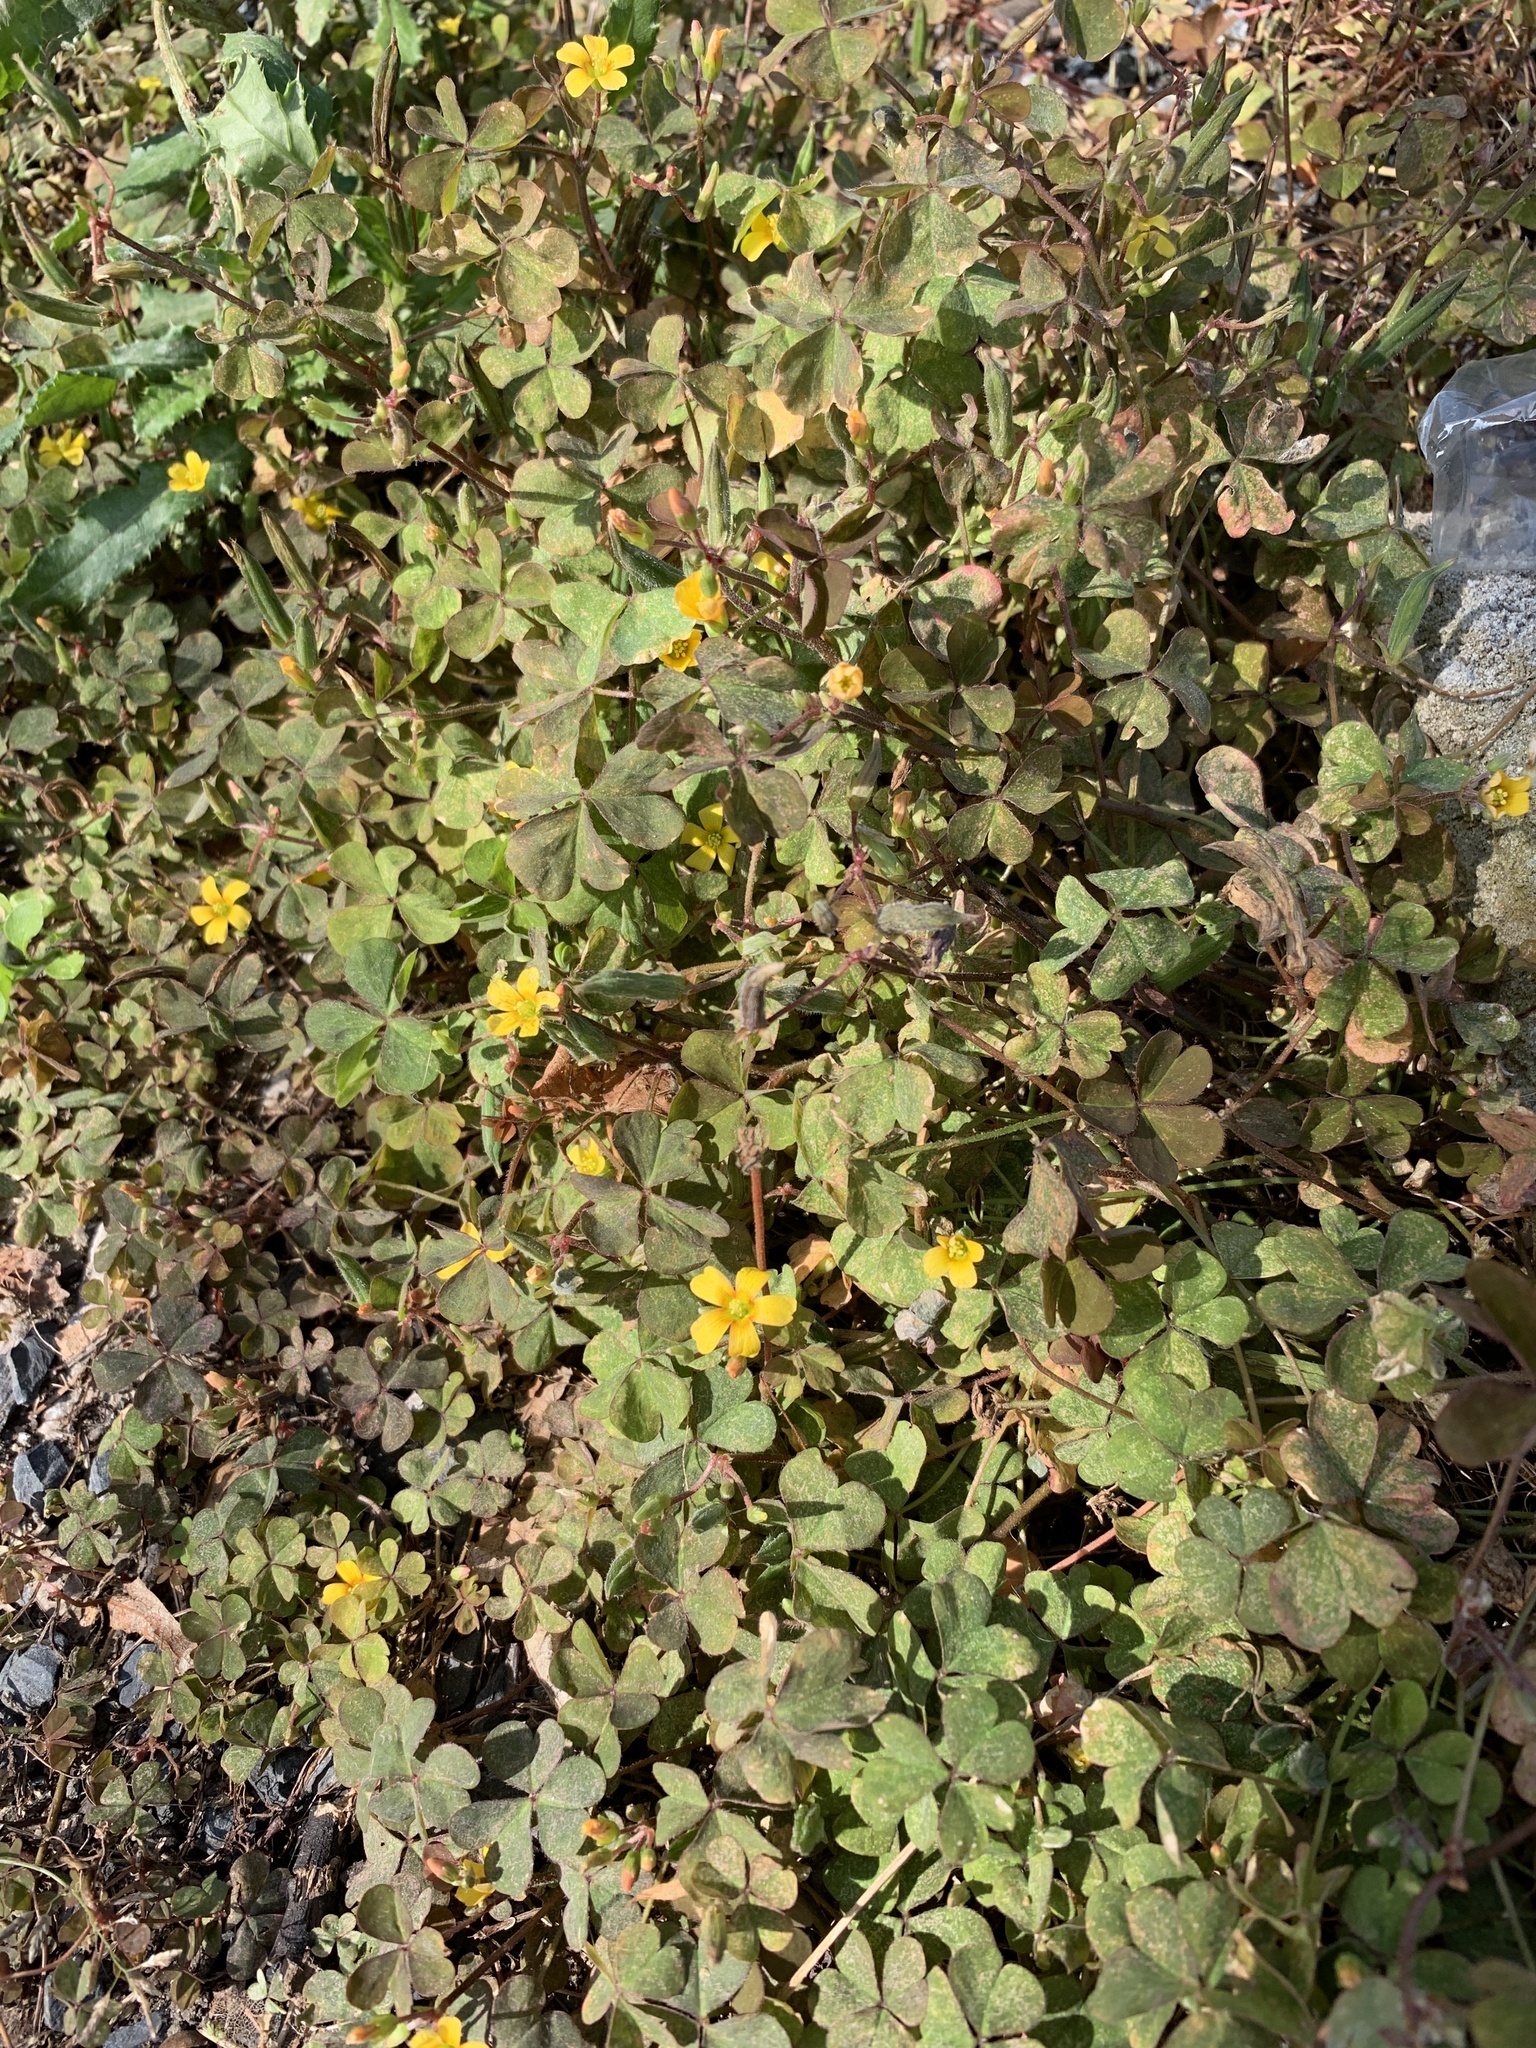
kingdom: Plantae
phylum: Tracheophyta
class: Magnoliopsida
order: Oxalidales
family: Oxalidaceae
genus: Oxalis
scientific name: Oxalis corniculata
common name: Procumbent yellow-sorrel
